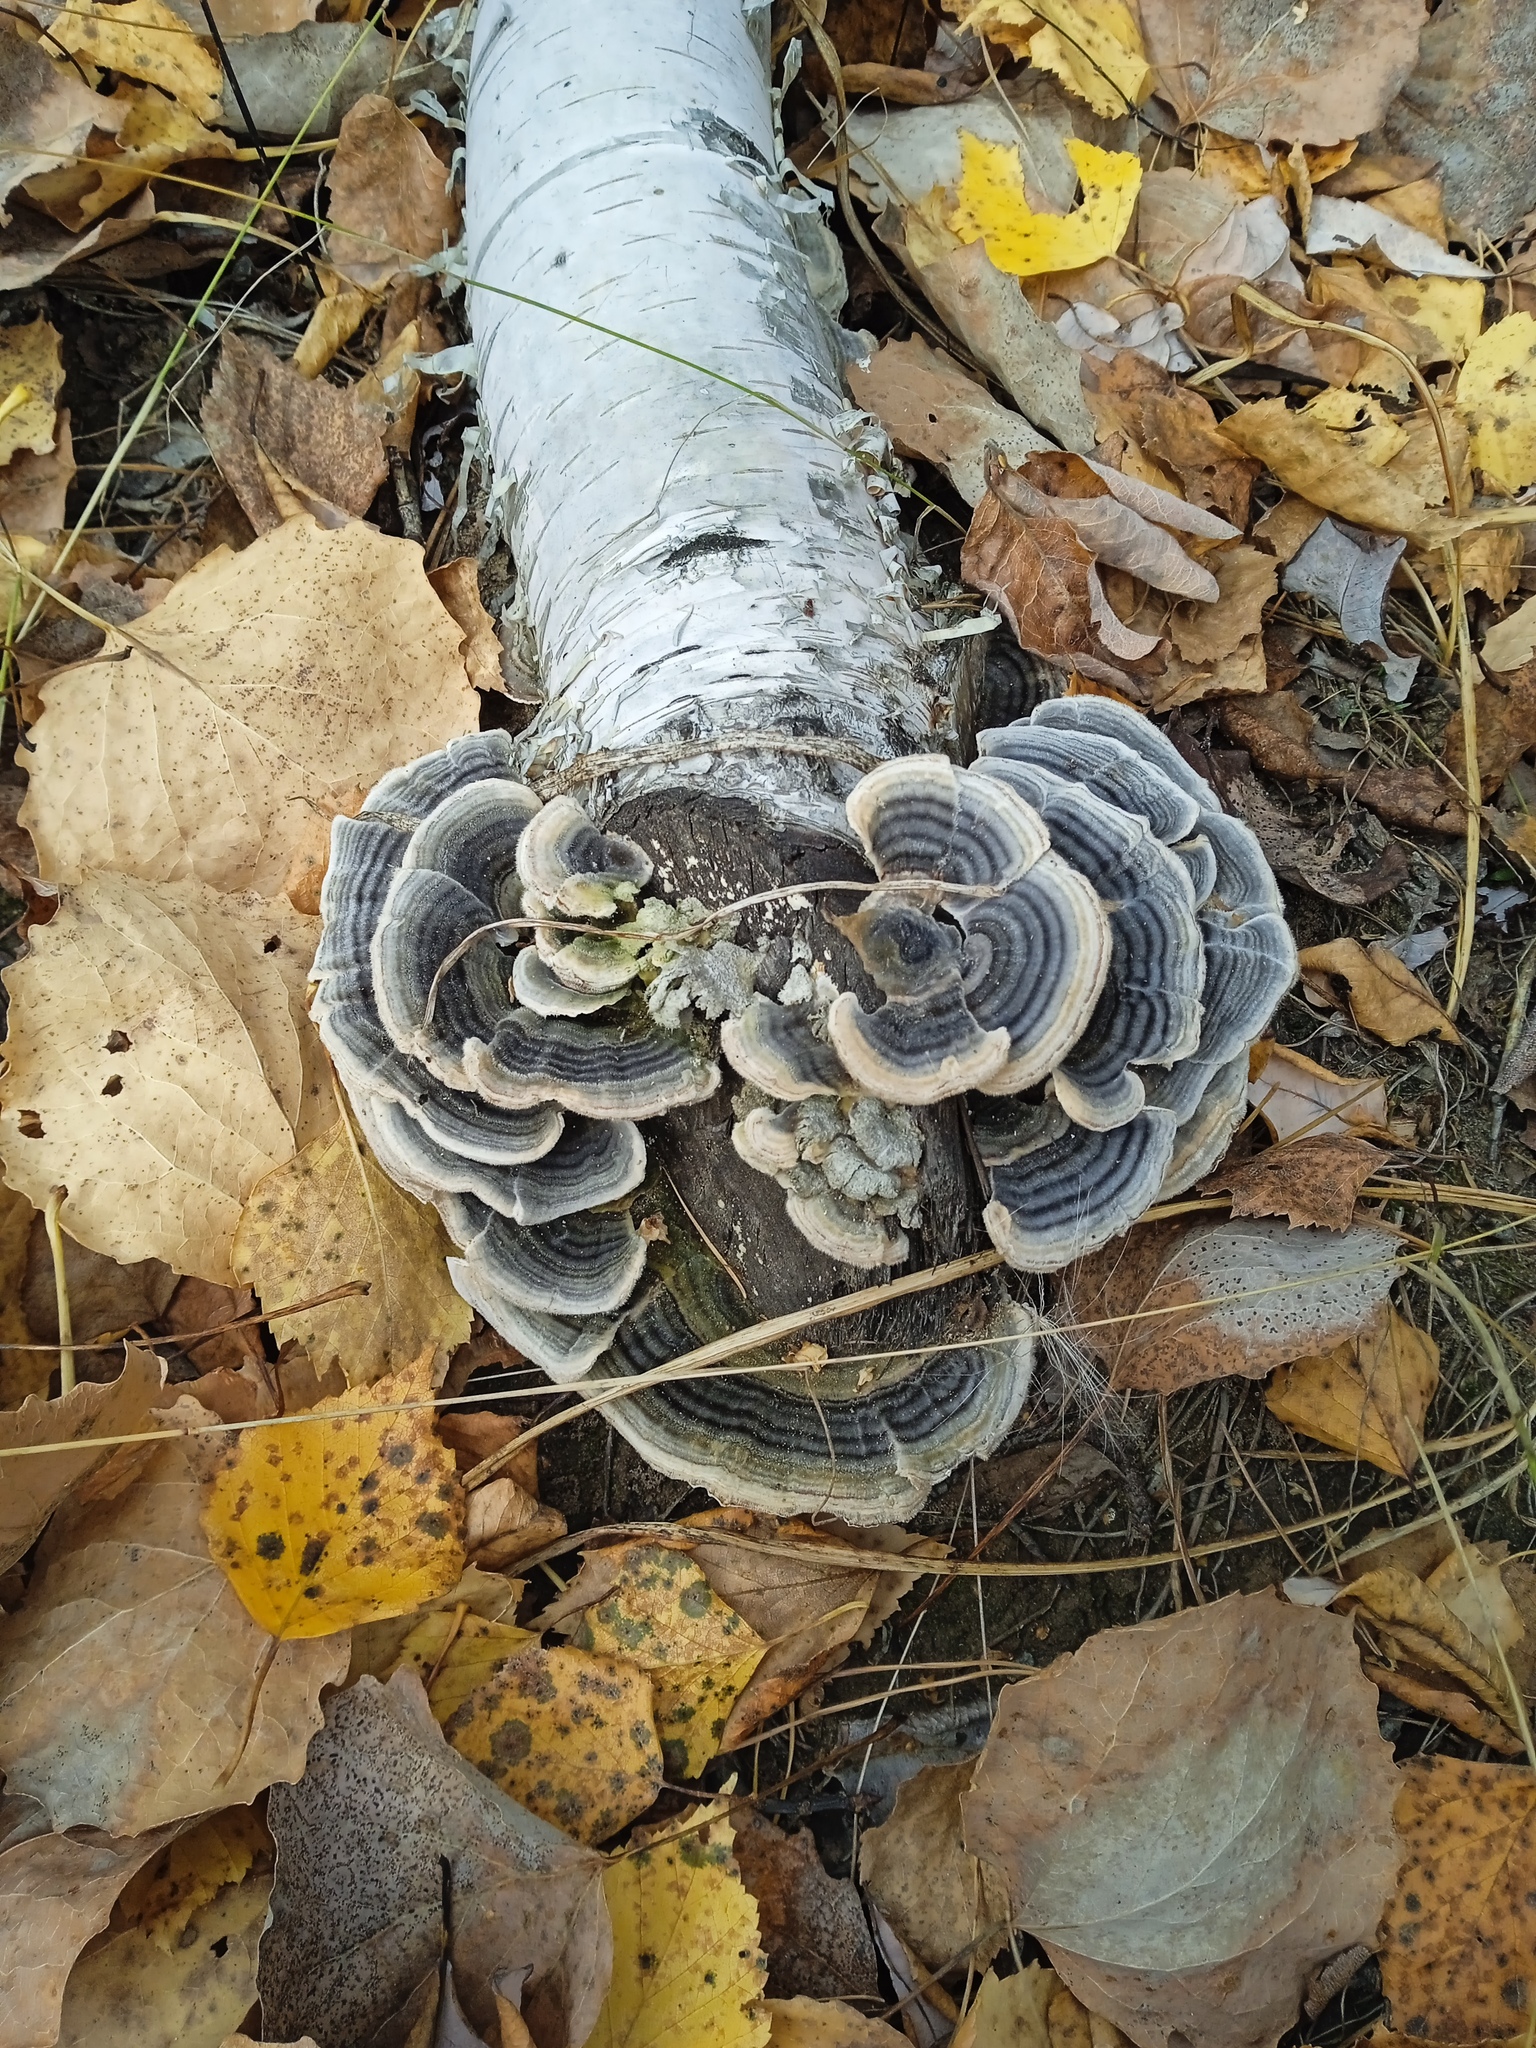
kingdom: Fungi
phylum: Basidiomycota
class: Agaricomycetes
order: Polyporales
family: Polyporaceae
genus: Trametes
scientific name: Trametes versicolor
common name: Turkeytail
